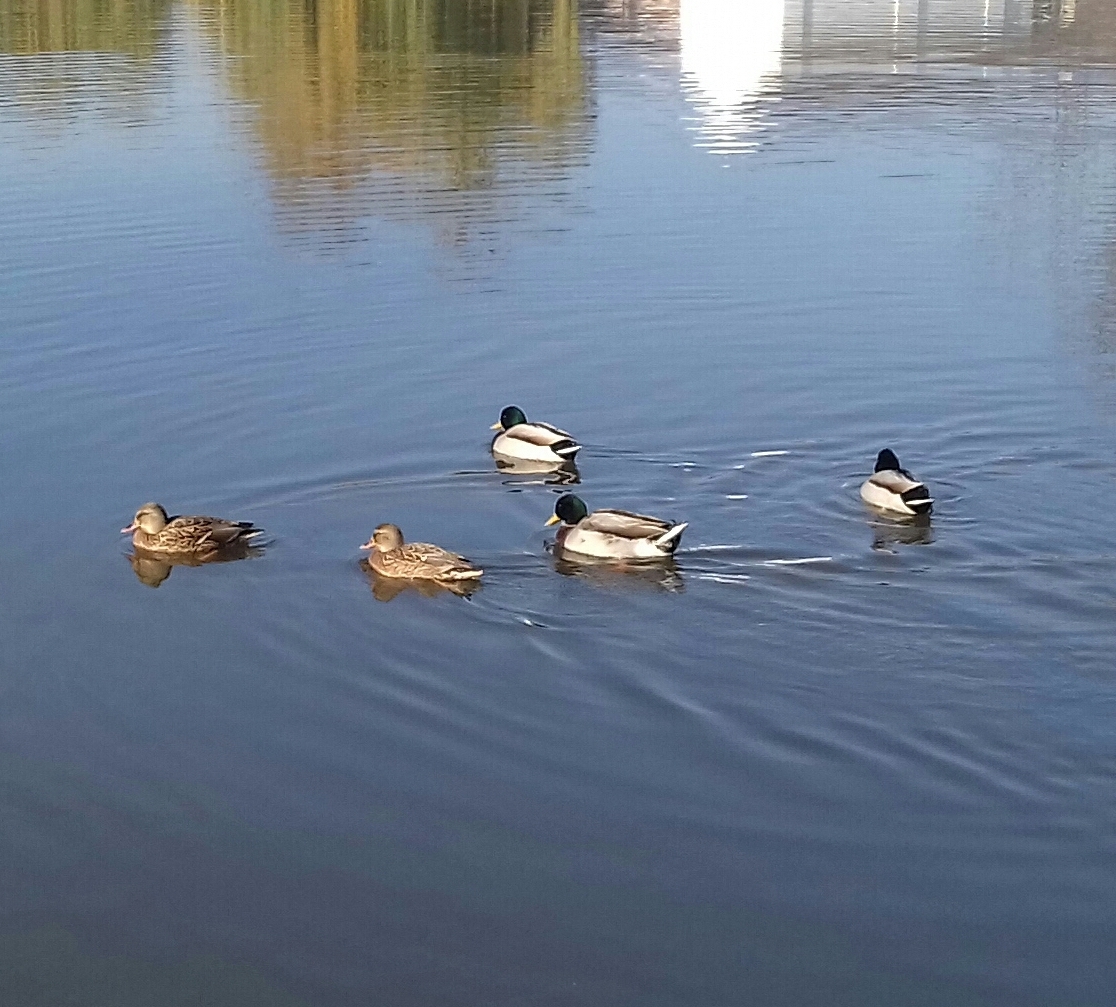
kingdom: Animalia
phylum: Chordata
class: Aves
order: Anseriformes
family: Anatidae
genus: Anas
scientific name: Anas platyrhynchos
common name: Mallard
